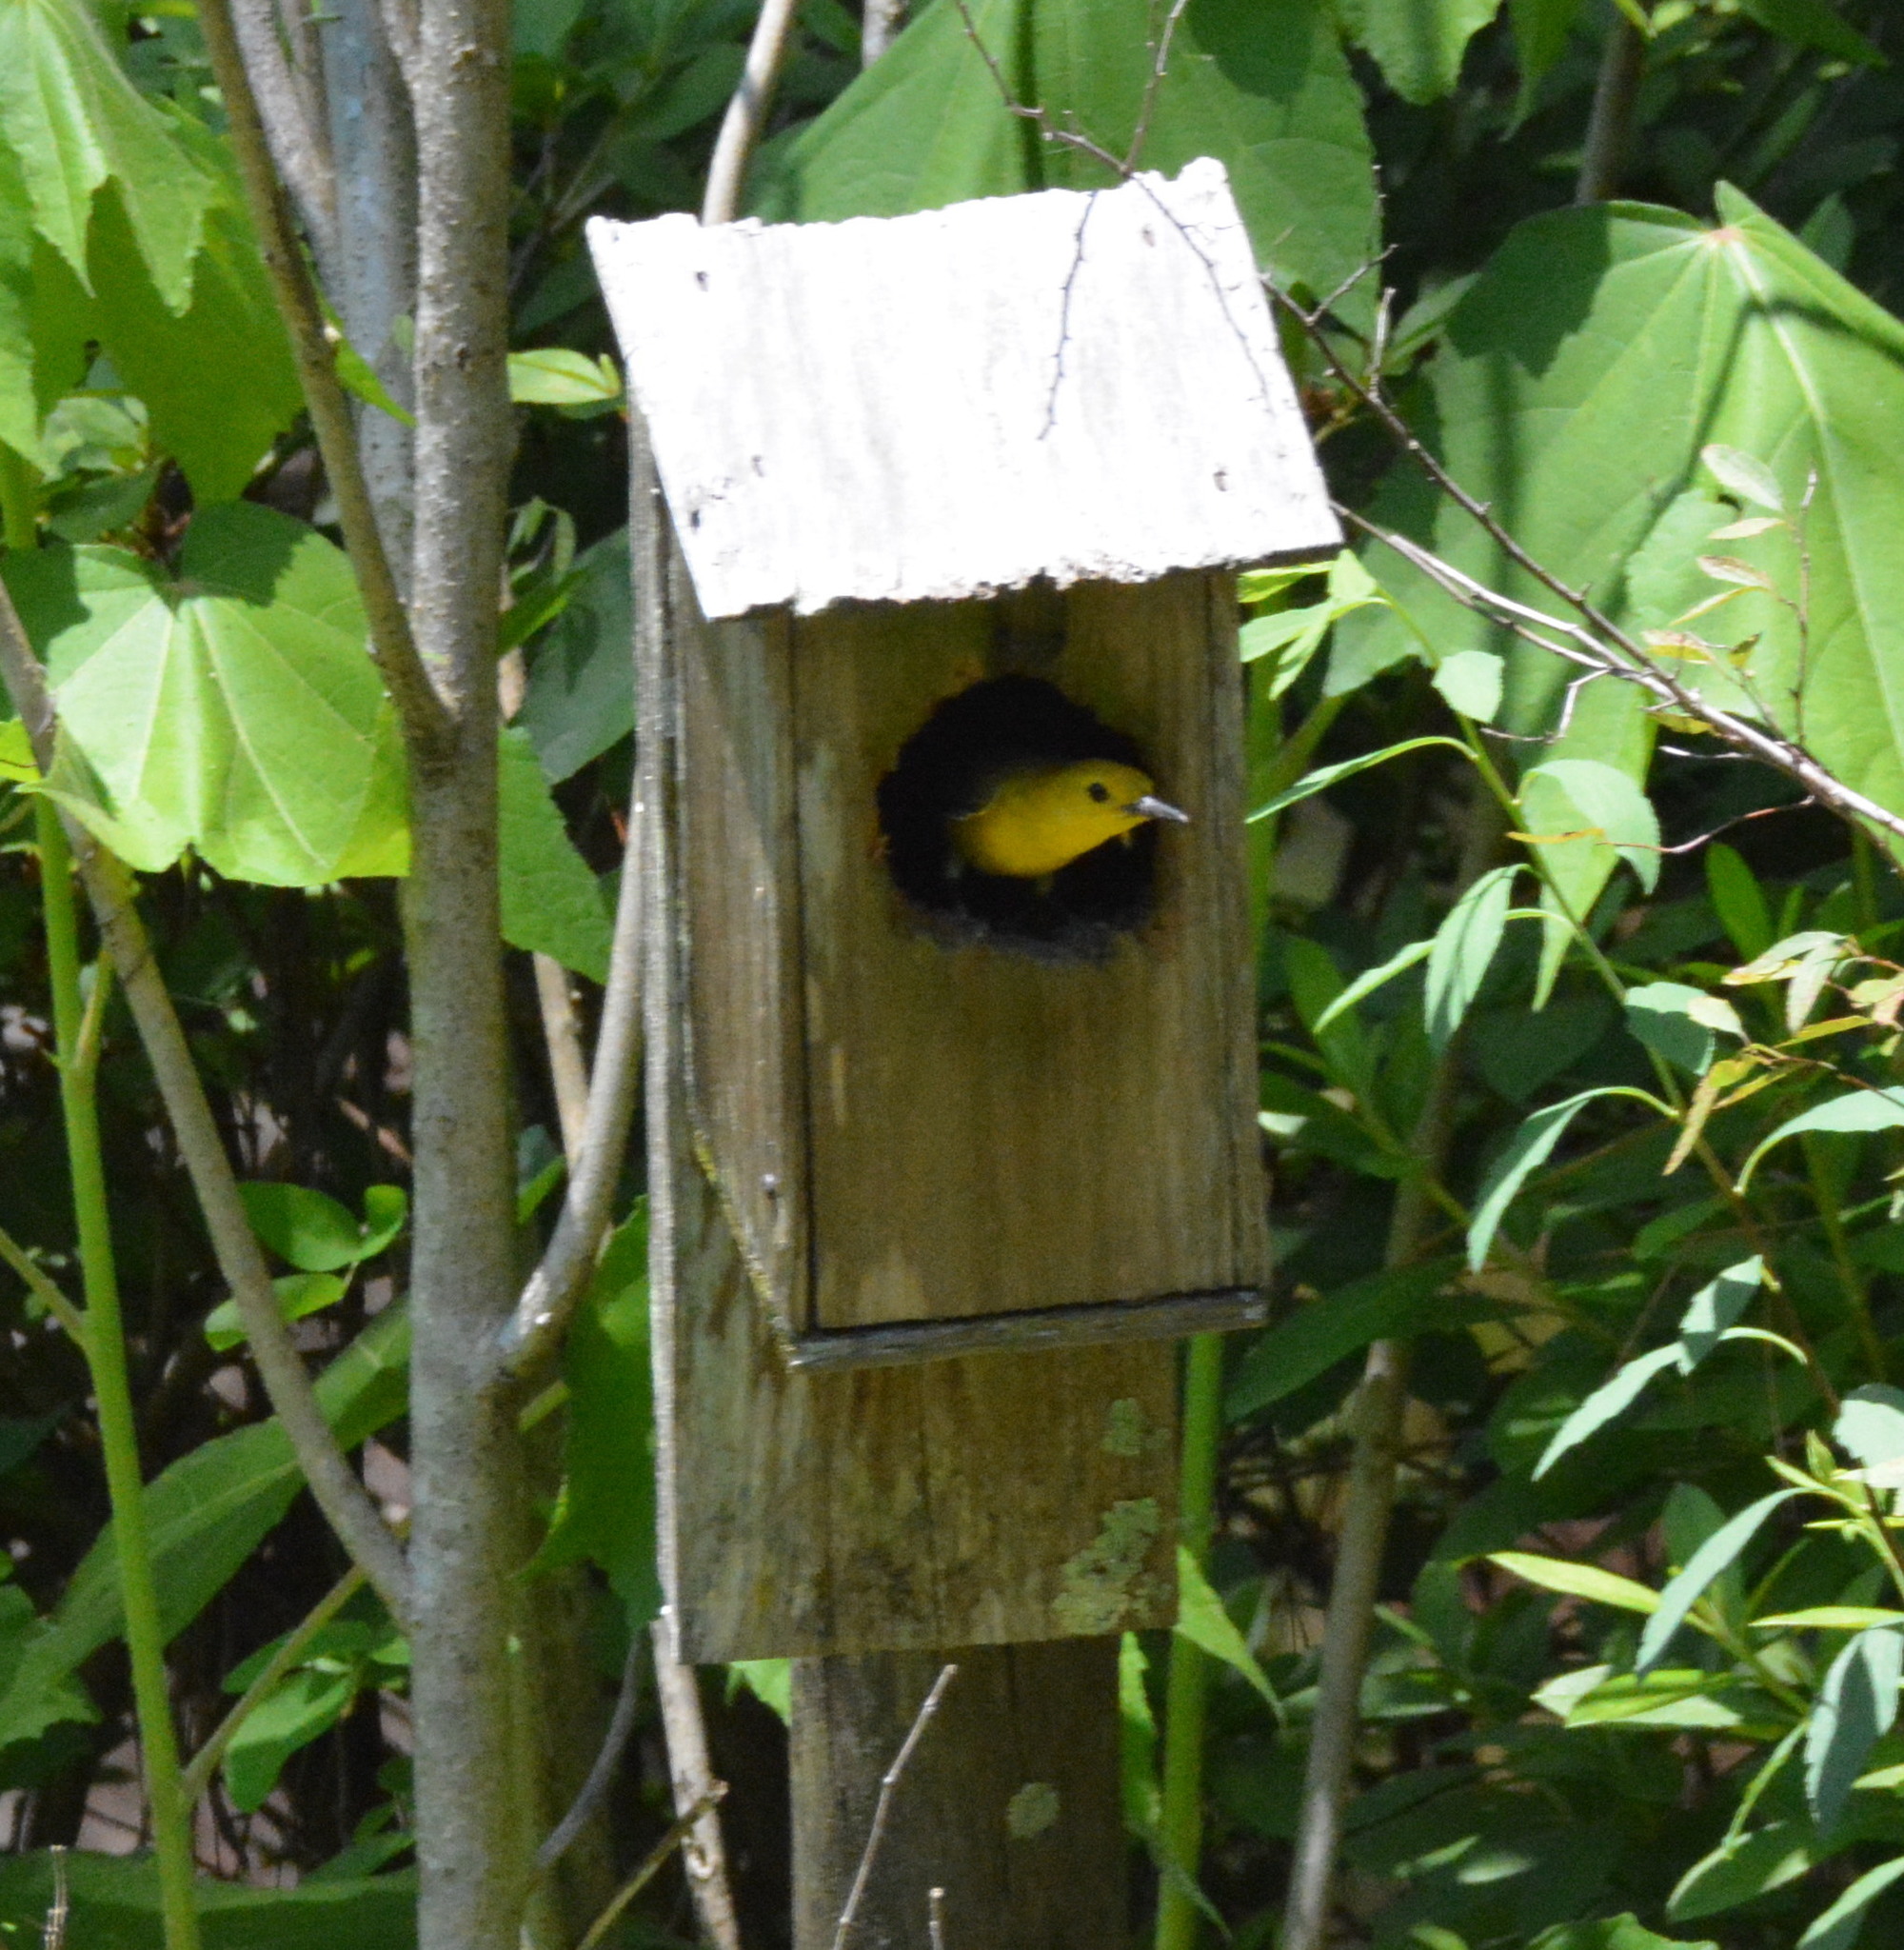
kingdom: Animalia
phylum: Chordata
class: Aves
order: Passeriformes
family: Parulidae
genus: Protonotaria
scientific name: Protonotaria citrea
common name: Prothonotary warbler
